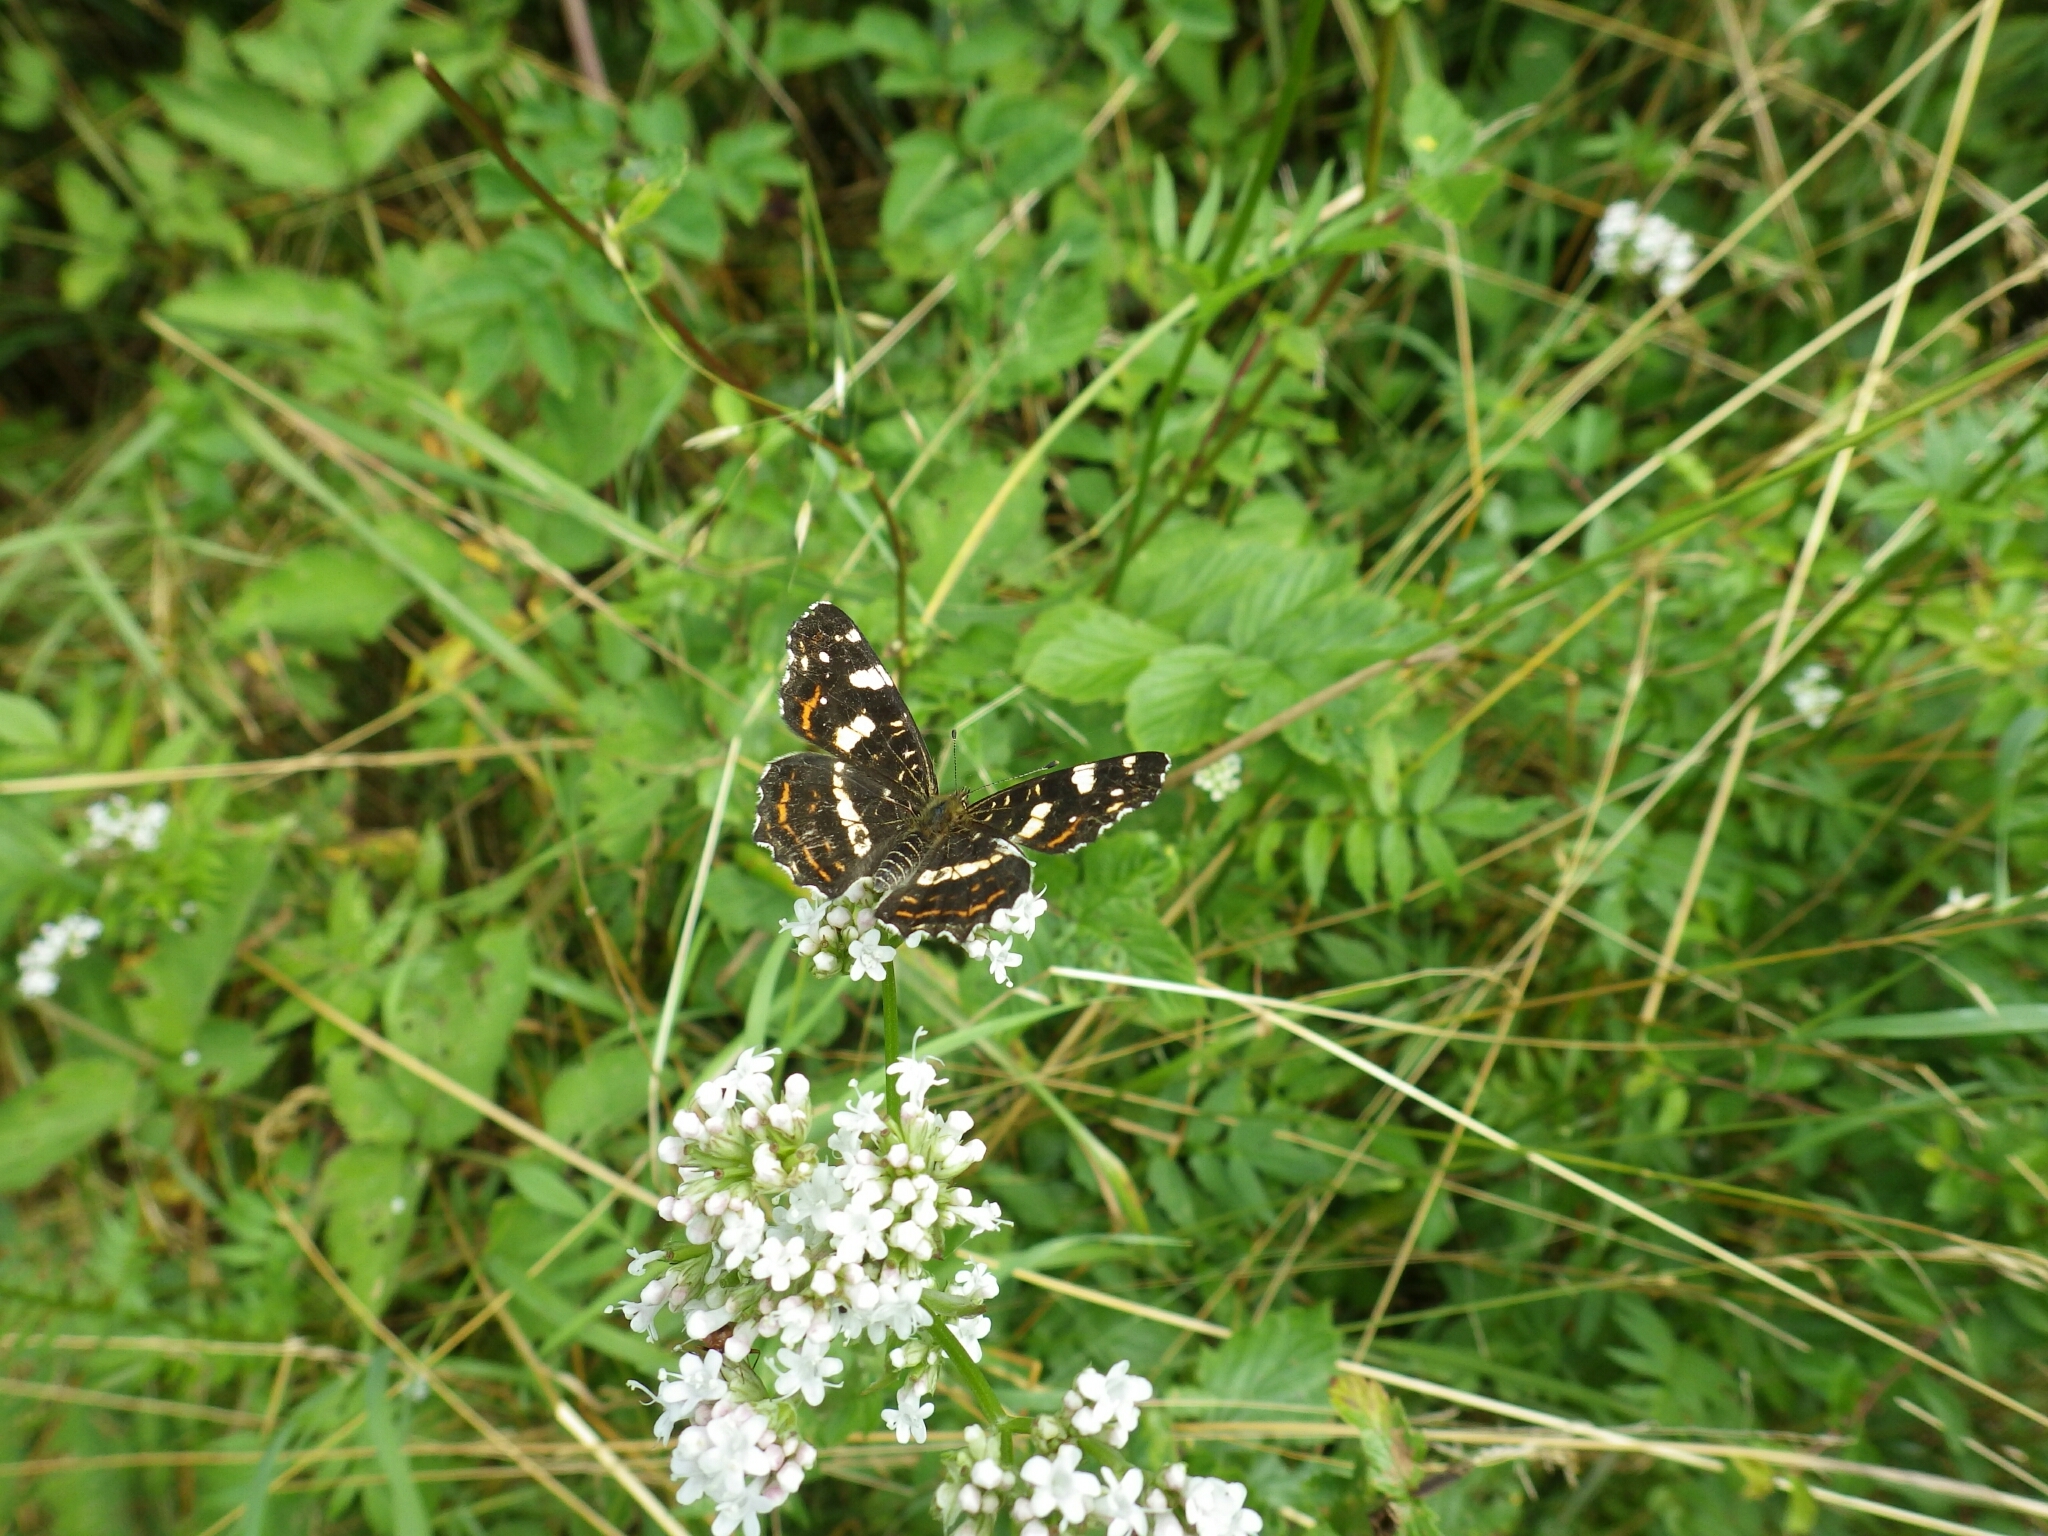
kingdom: Animalia
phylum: Arthropoda
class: Insecta
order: Lepidoptera
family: Nymphalidae
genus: Araschnia
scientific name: Araschnia levana
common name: Map butterfly
